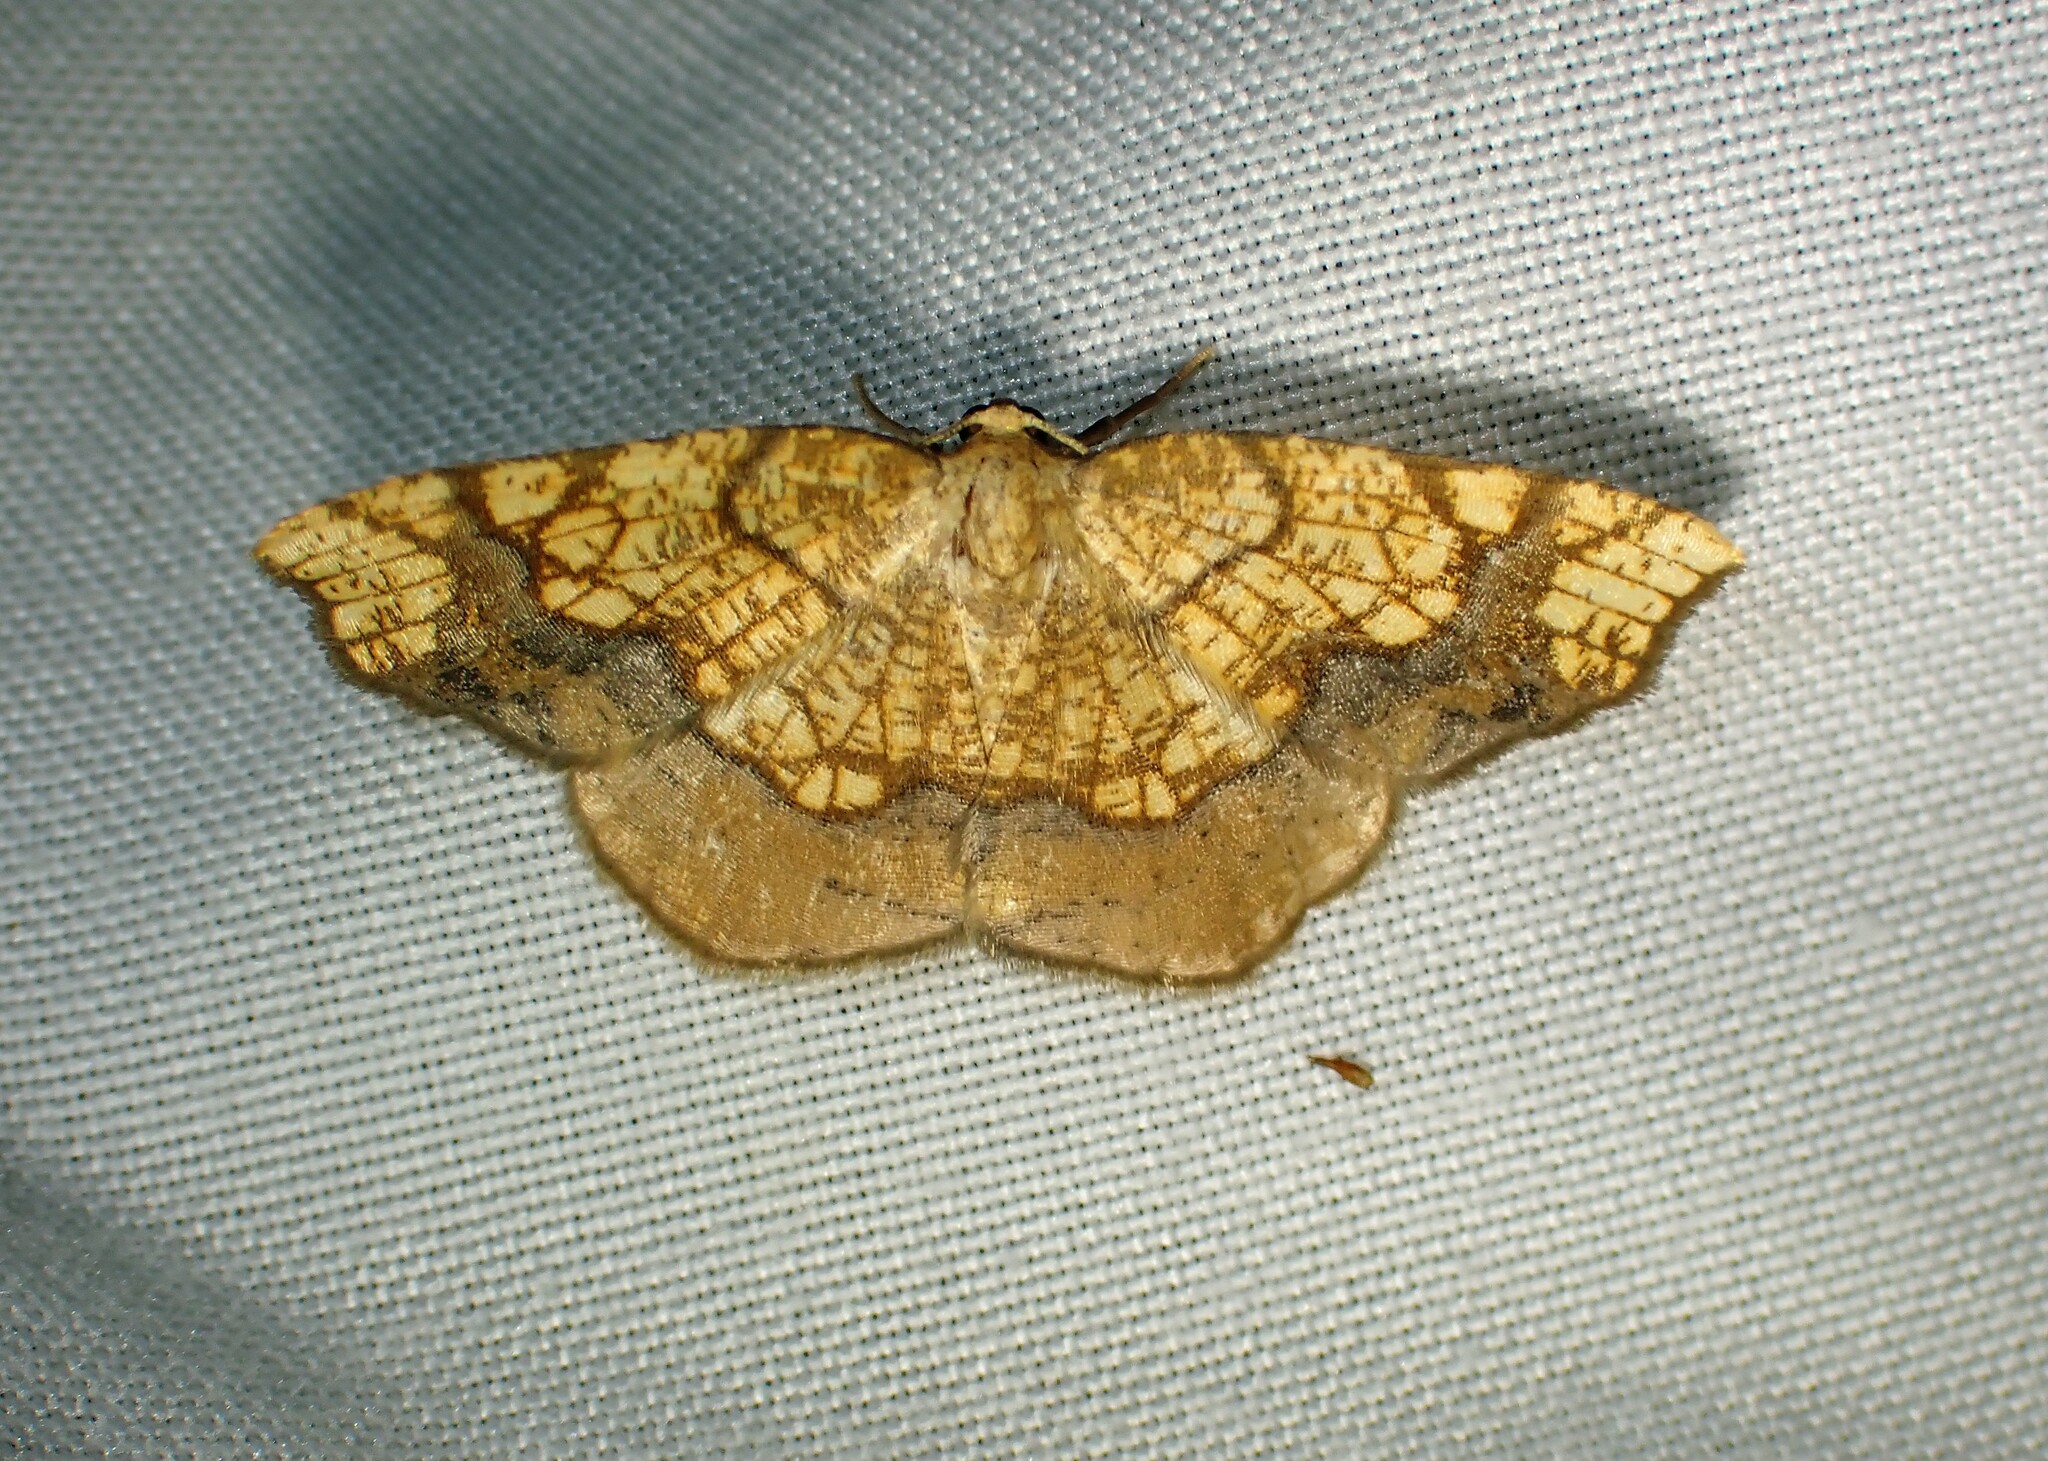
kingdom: Animalia
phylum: Arthropoda
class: Insecta
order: Lepidoptera
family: Geometridae
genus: Nematocampa
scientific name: Nematocampa resistaria
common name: Horned spanworm moth
